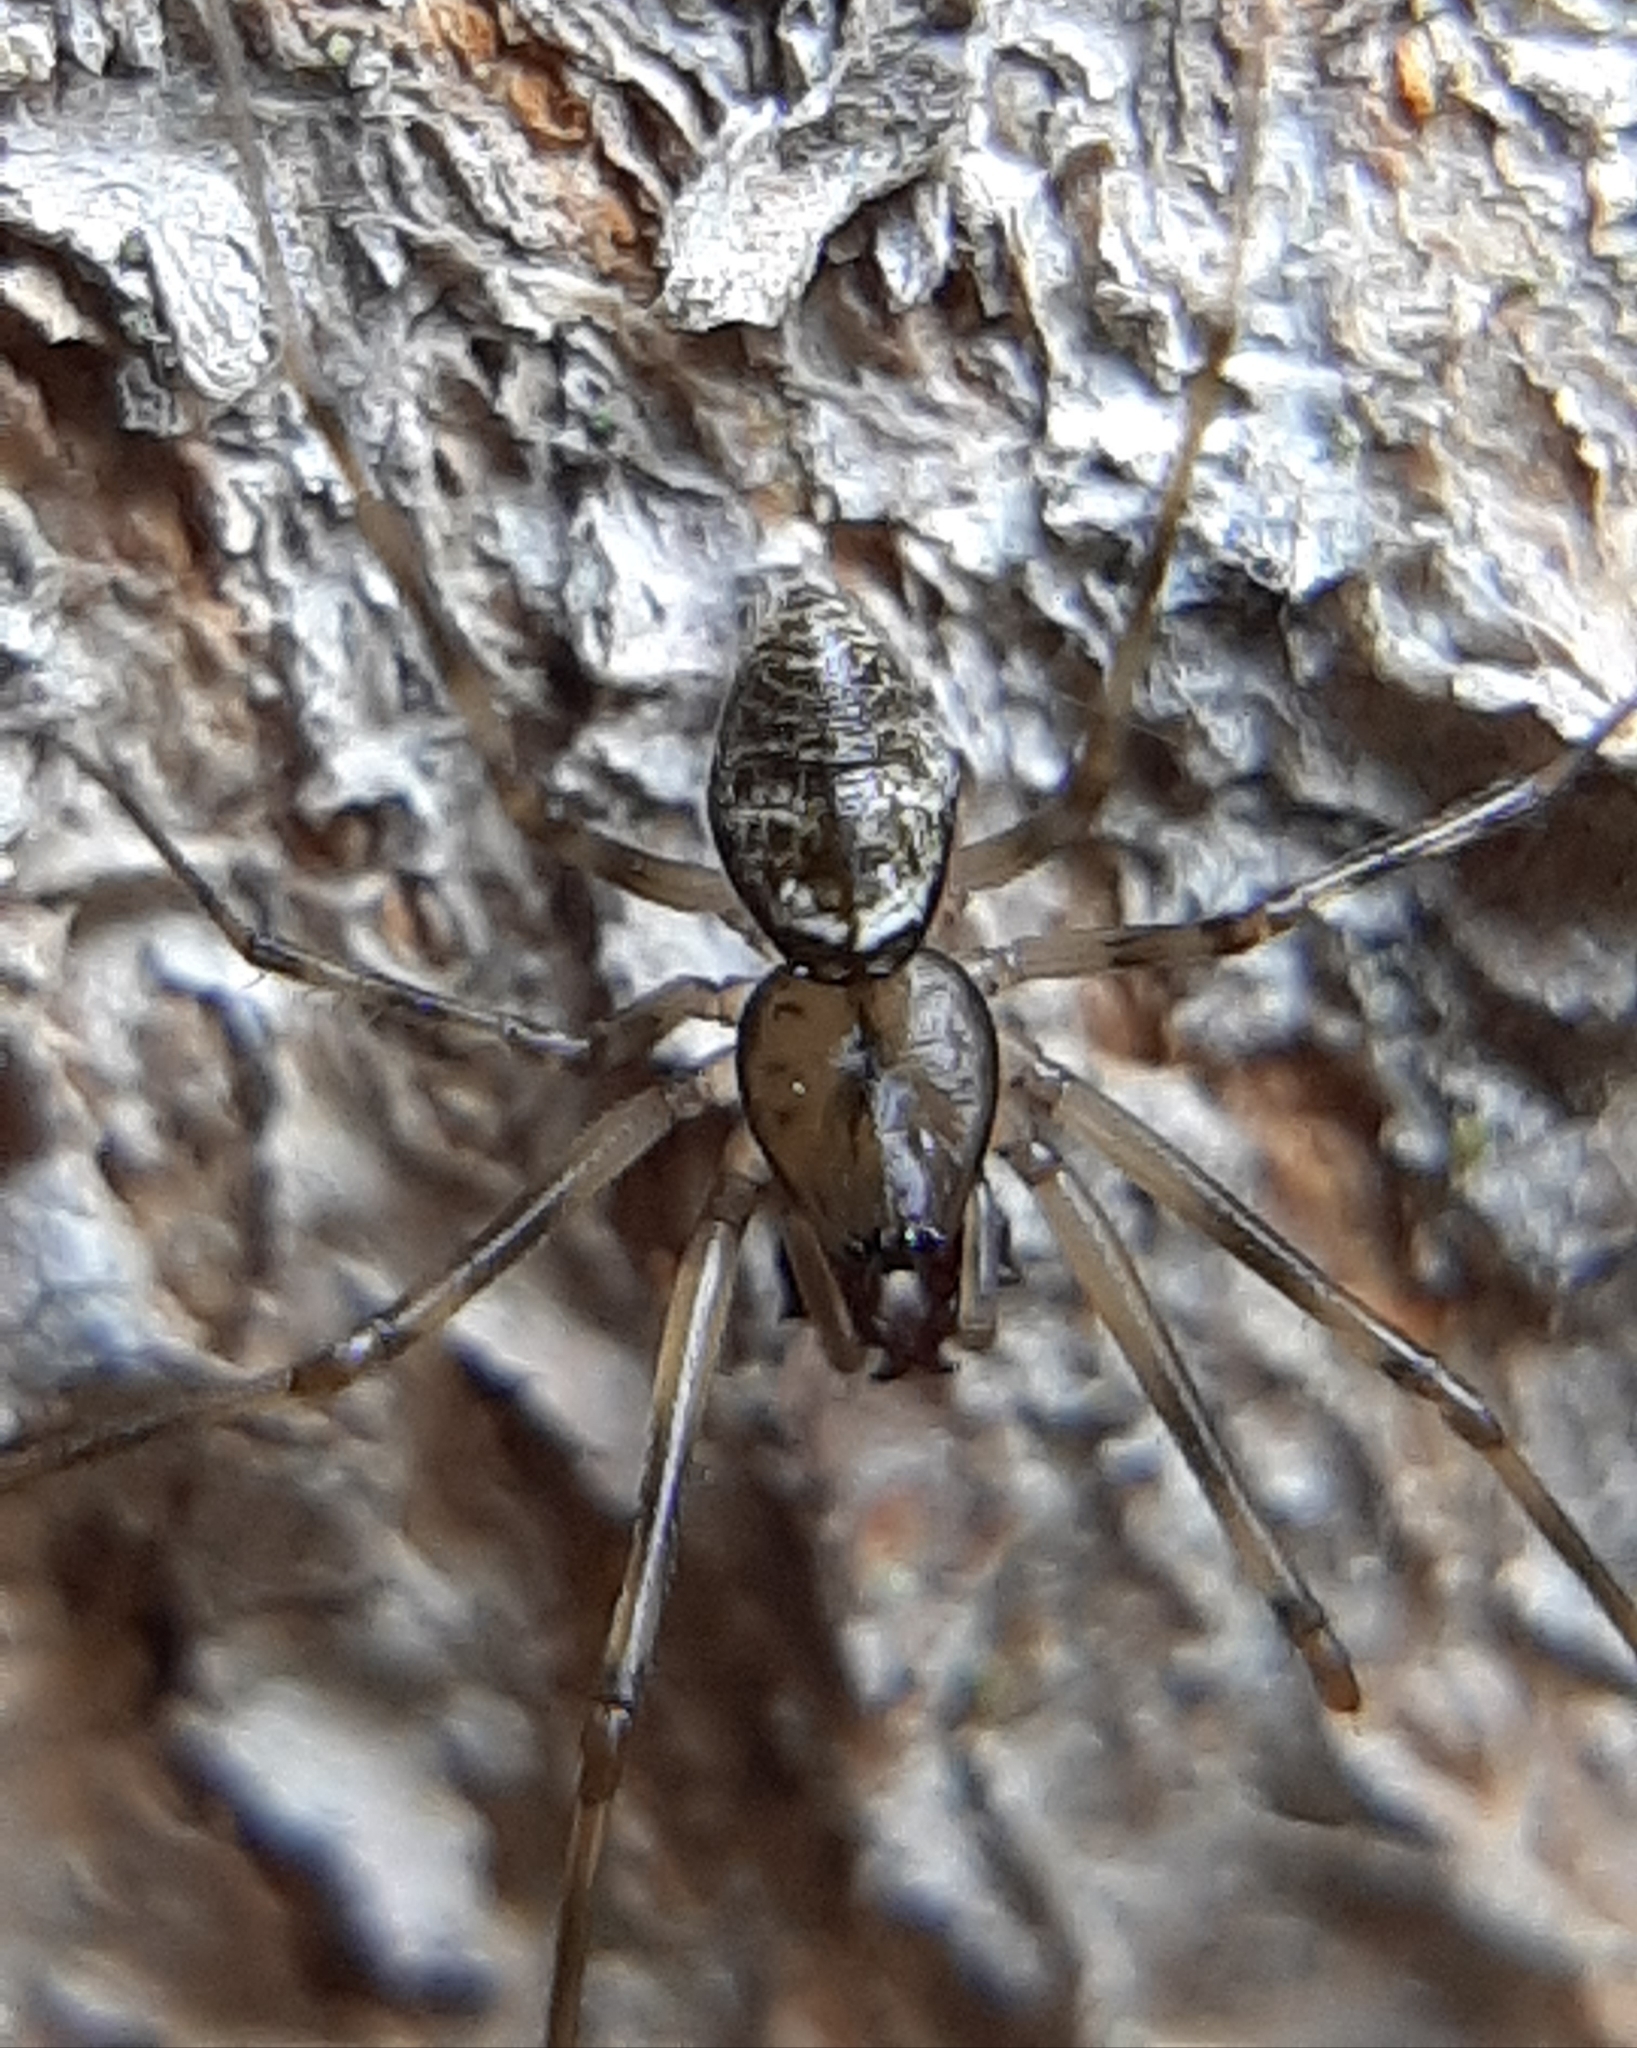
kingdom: Animalia
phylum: Arthropoda
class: Arachnida
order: Araneae
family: Linyphiidae
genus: Drapetisca
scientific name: Drapetisca alteranda
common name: Northern long-toothed sheetweaver
